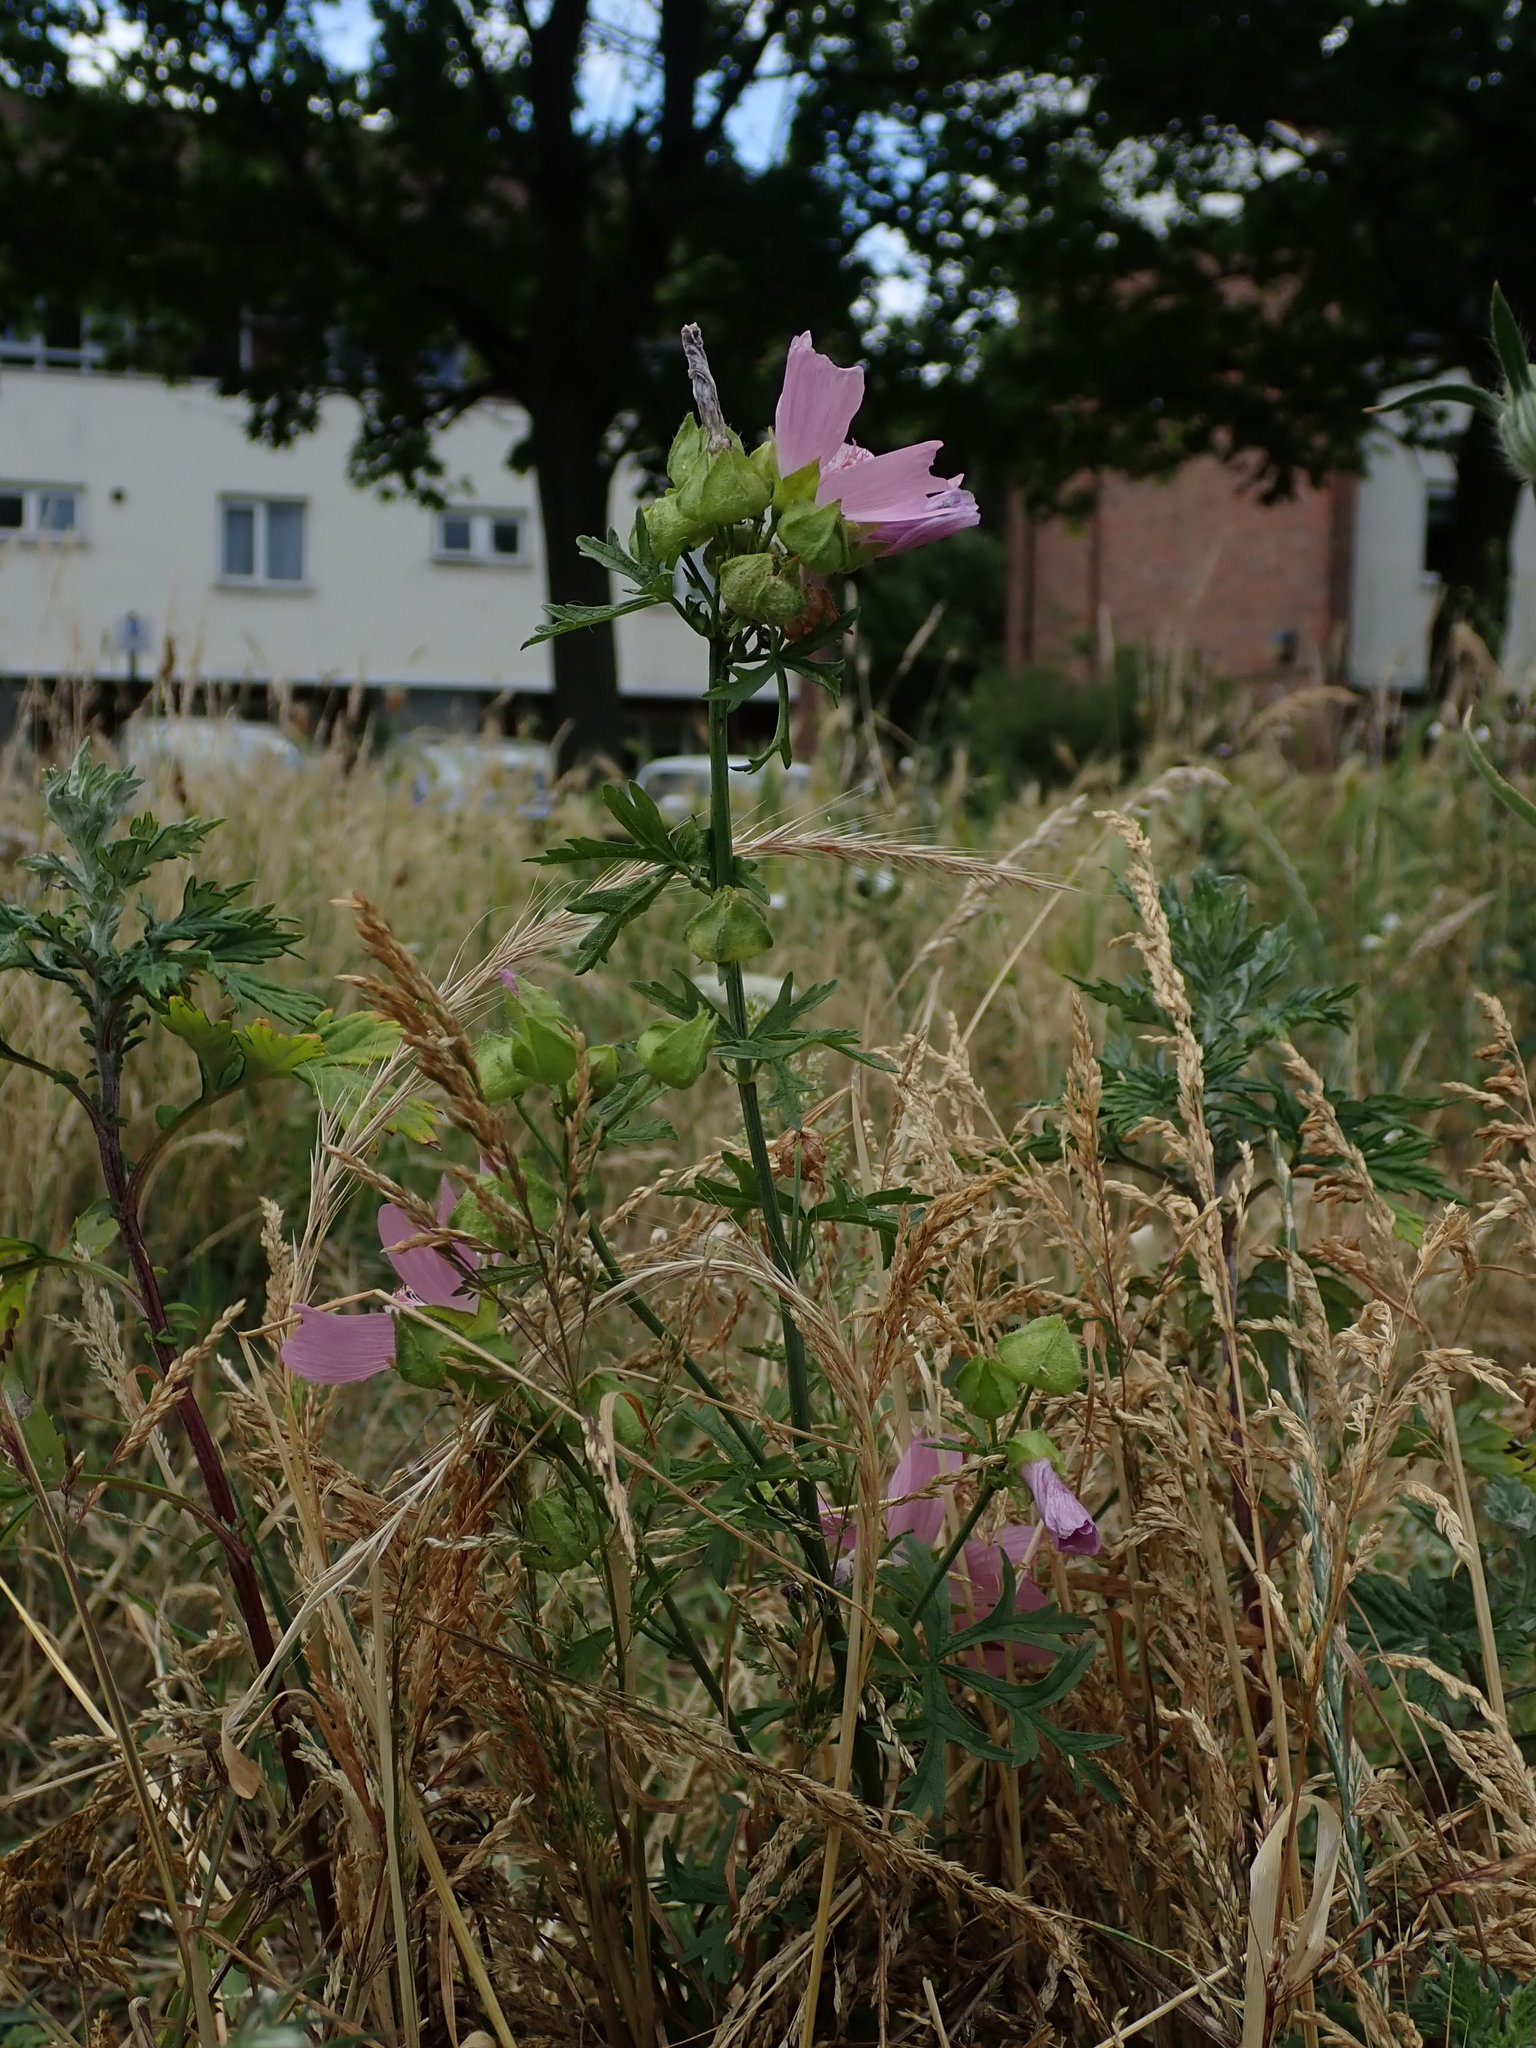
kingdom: Plantae
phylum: Tracheophyta
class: Magnoliopsida
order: Malvales
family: Malvaceae
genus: Malva
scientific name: Malva moschata
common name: Musk mallow
